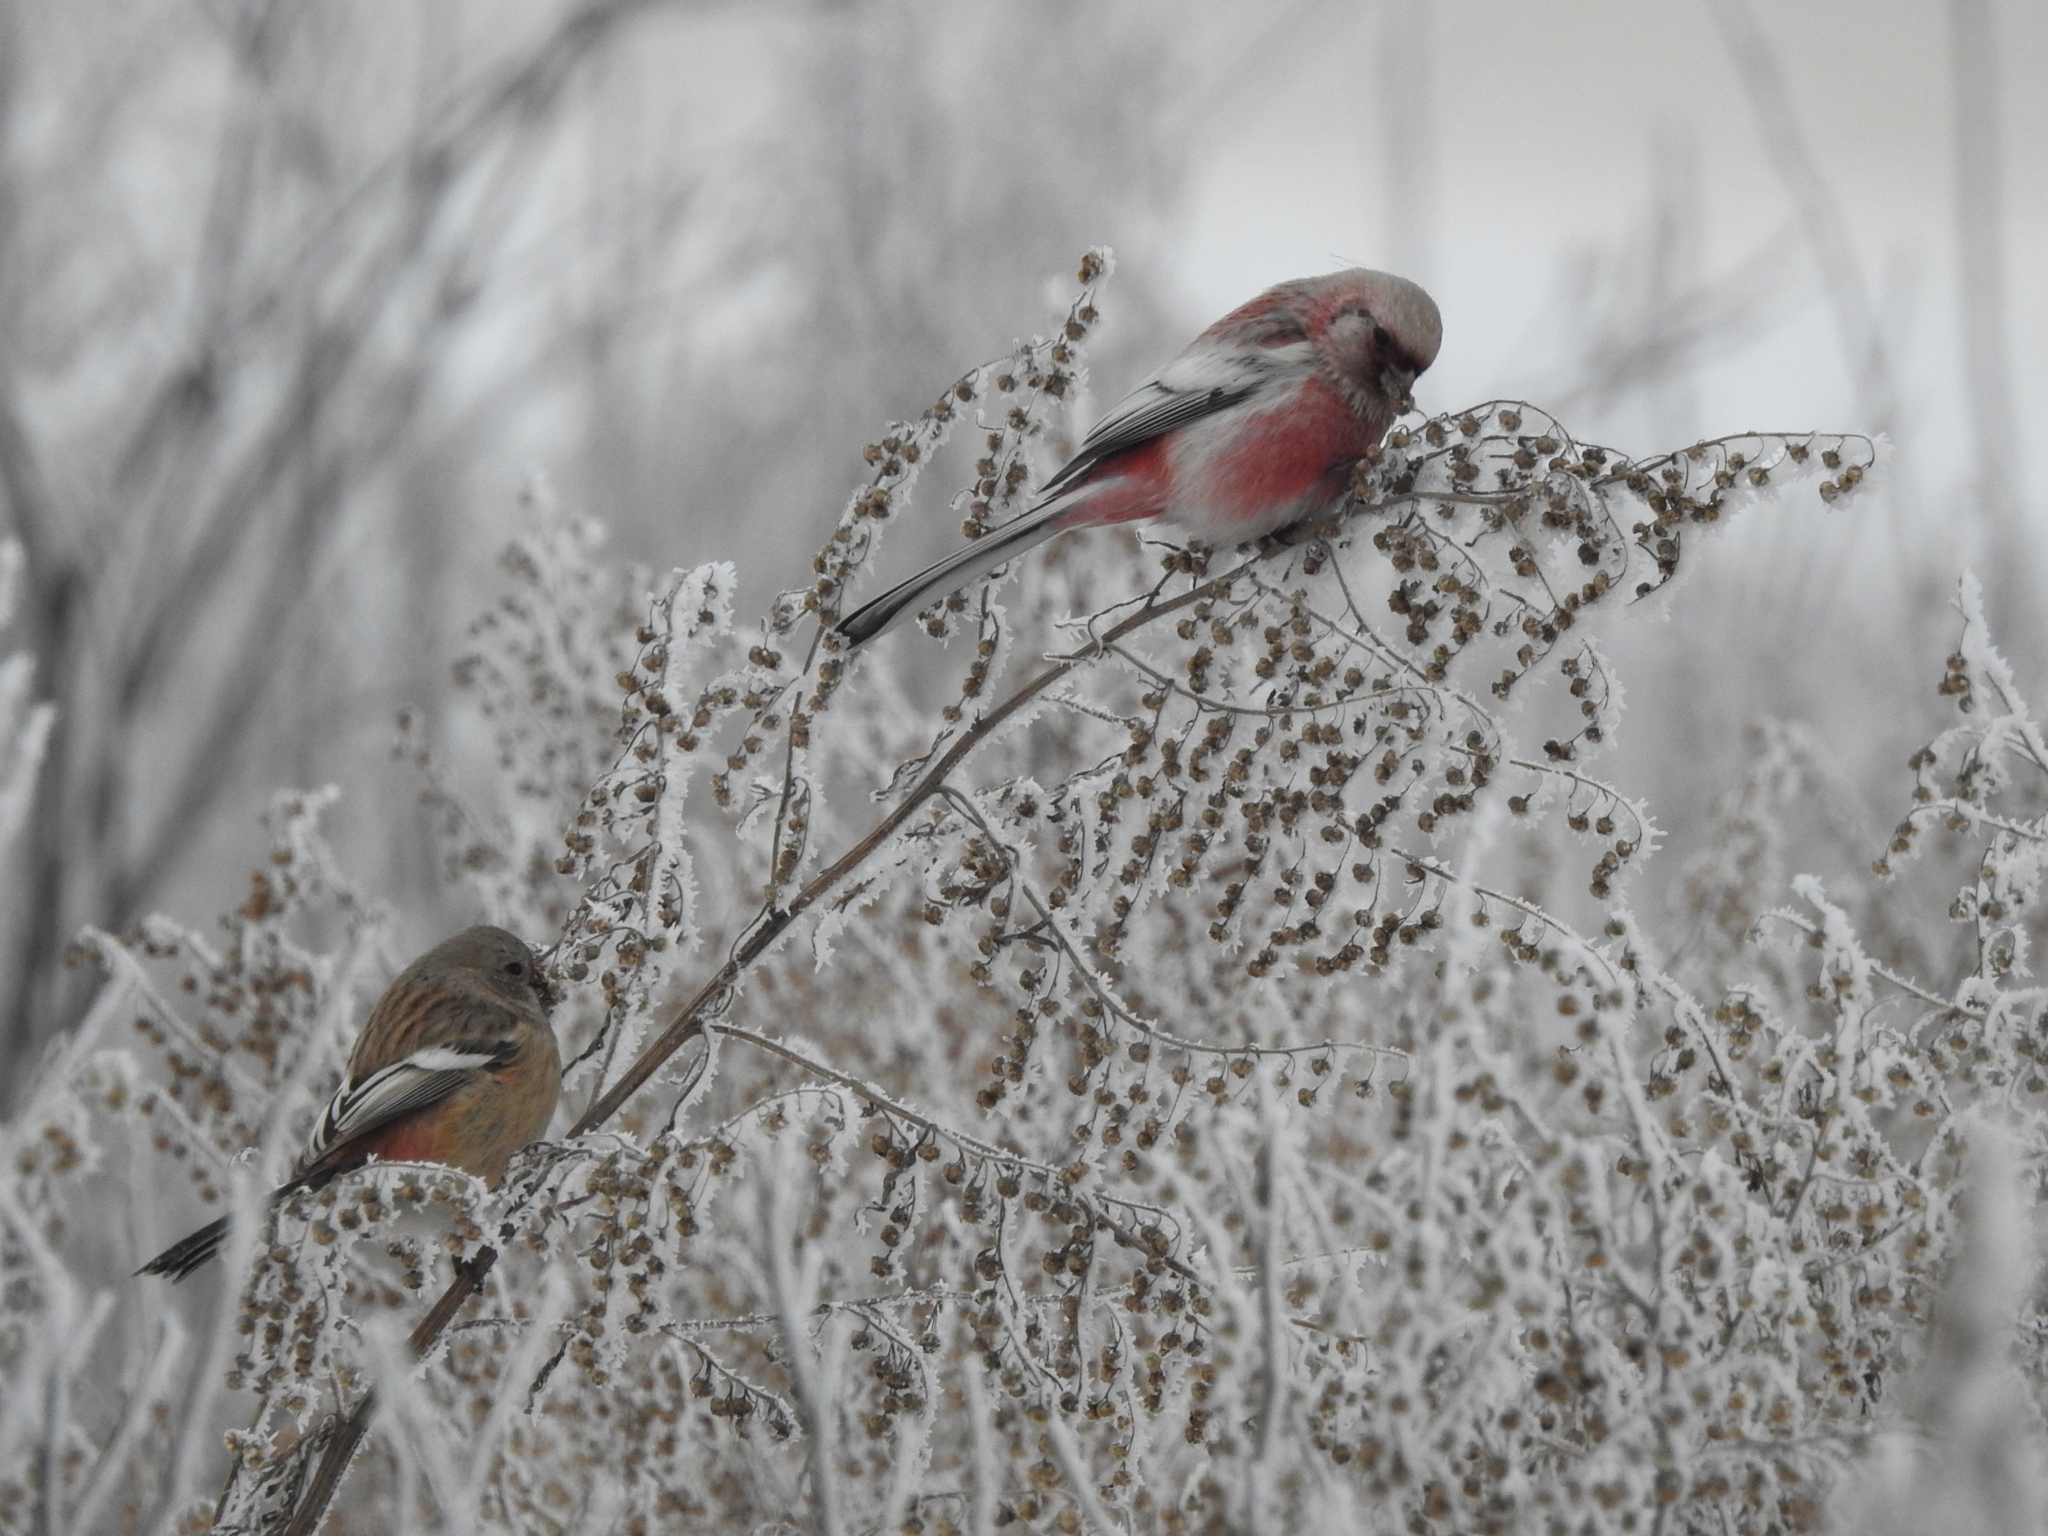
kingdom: Animalia
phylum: Chordata
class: Aves
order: Passeriformes
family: Fringillidae
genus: Carpodacus
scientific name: Carpodacus sibiricus
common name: Long-tailed rosefinch
